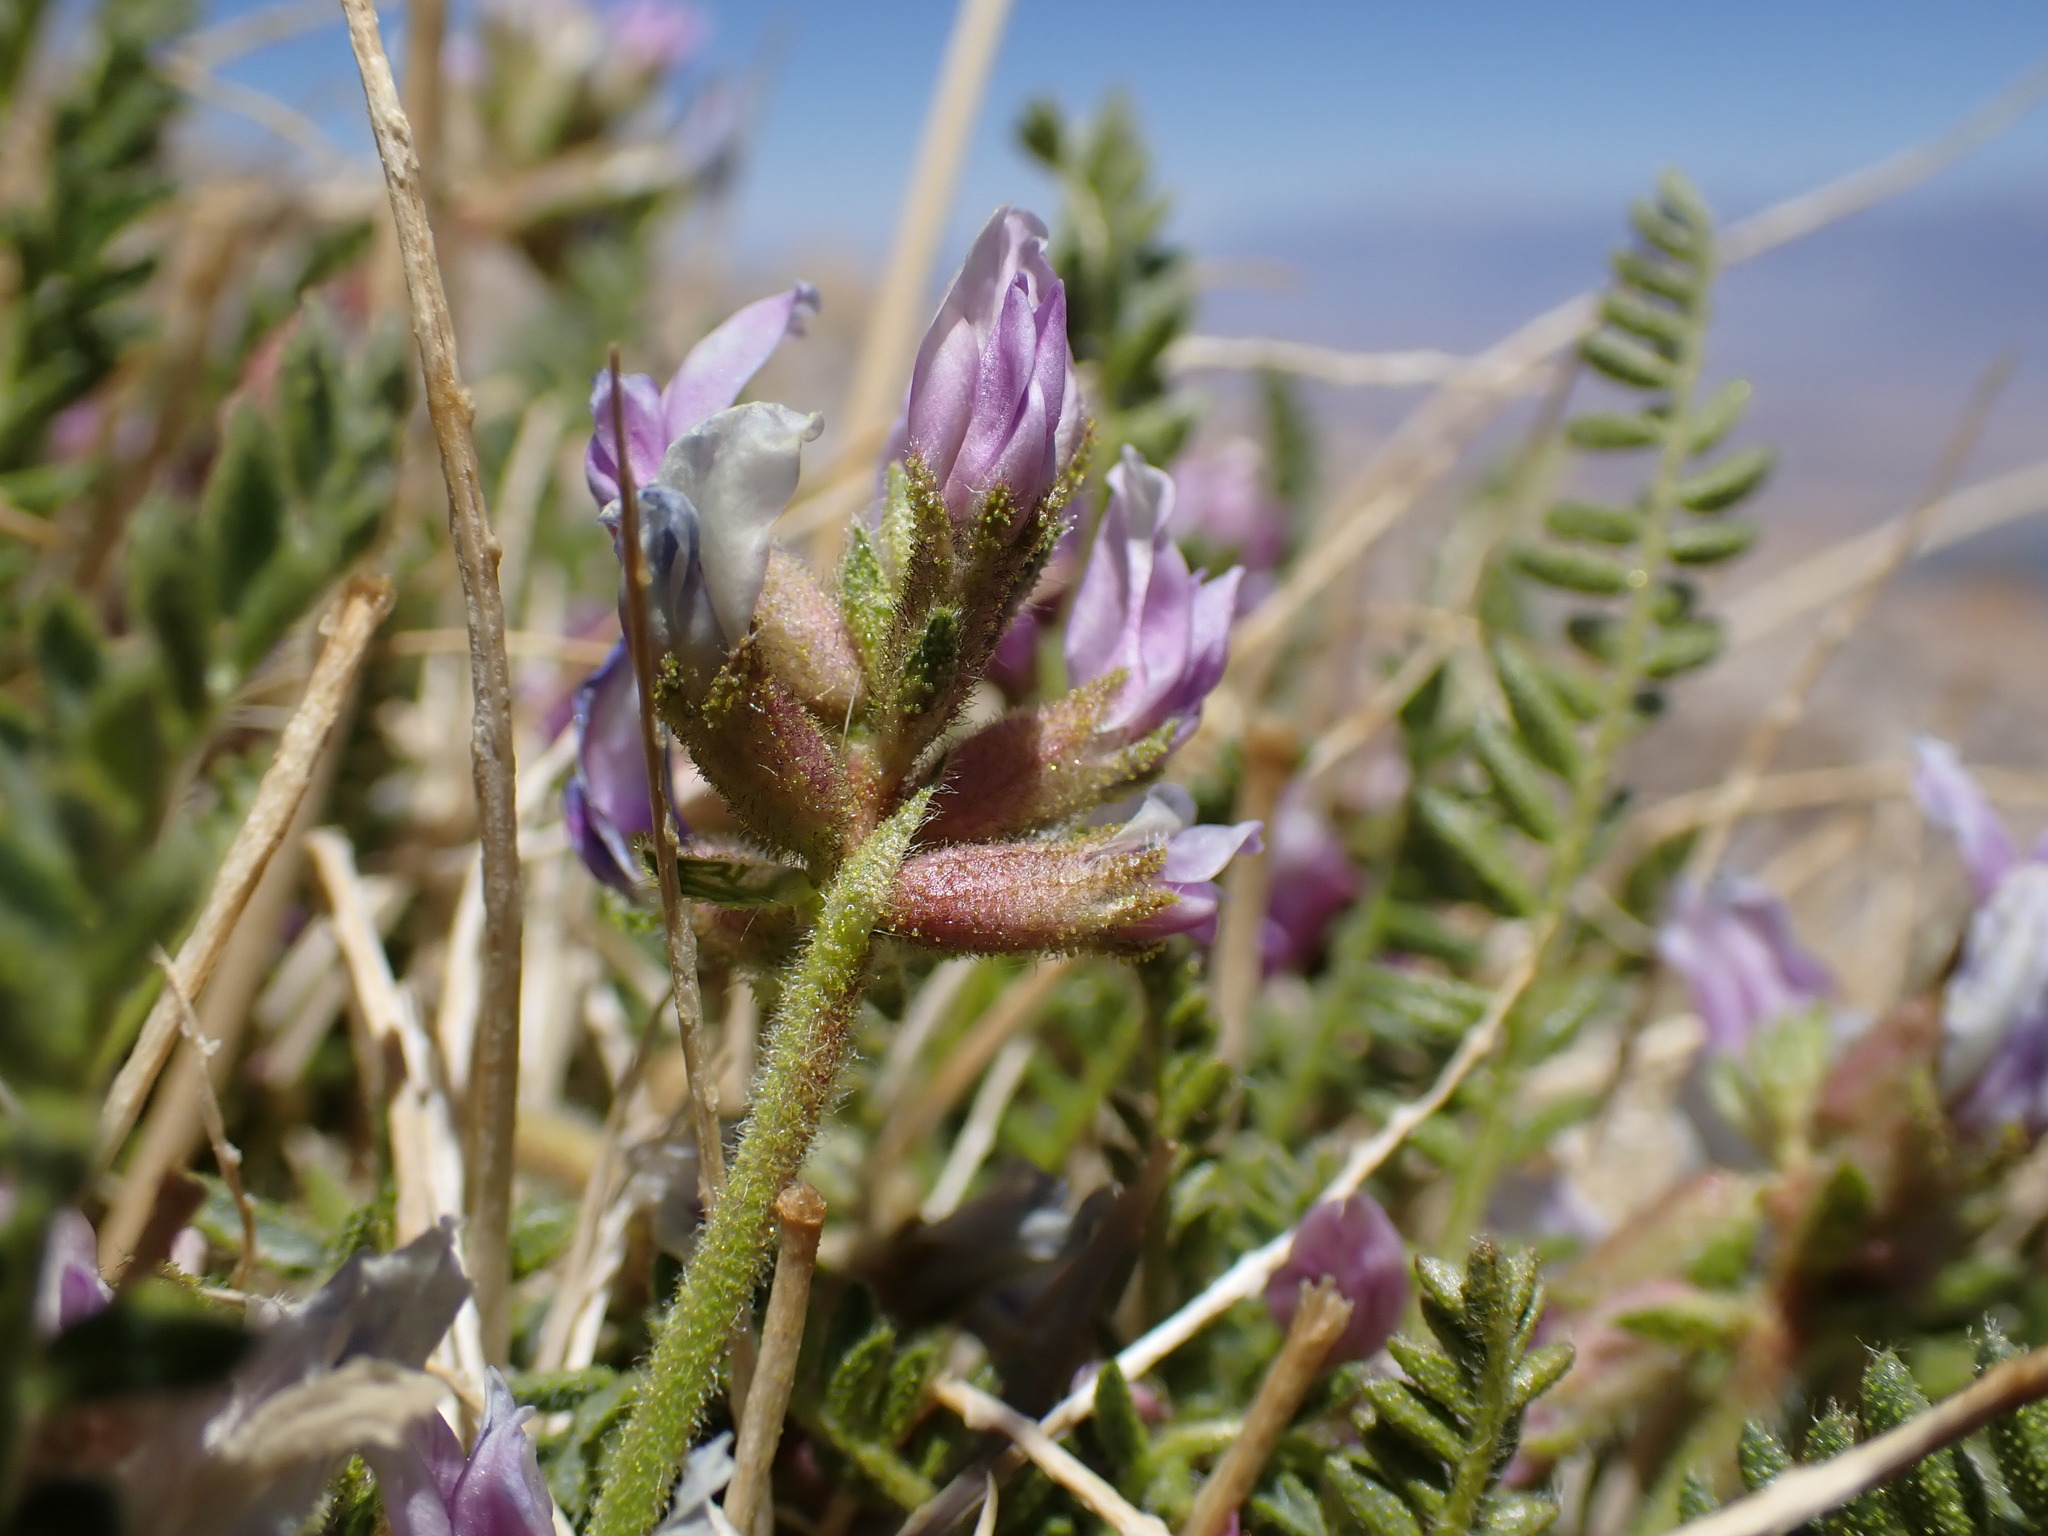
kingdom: Plantae
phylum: Tracheophyta
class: Magnoliopsida
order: Fabales
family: Fabaceae
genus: Oxytropis
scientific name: Oxytropis borealis
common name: Boreal locoweed
